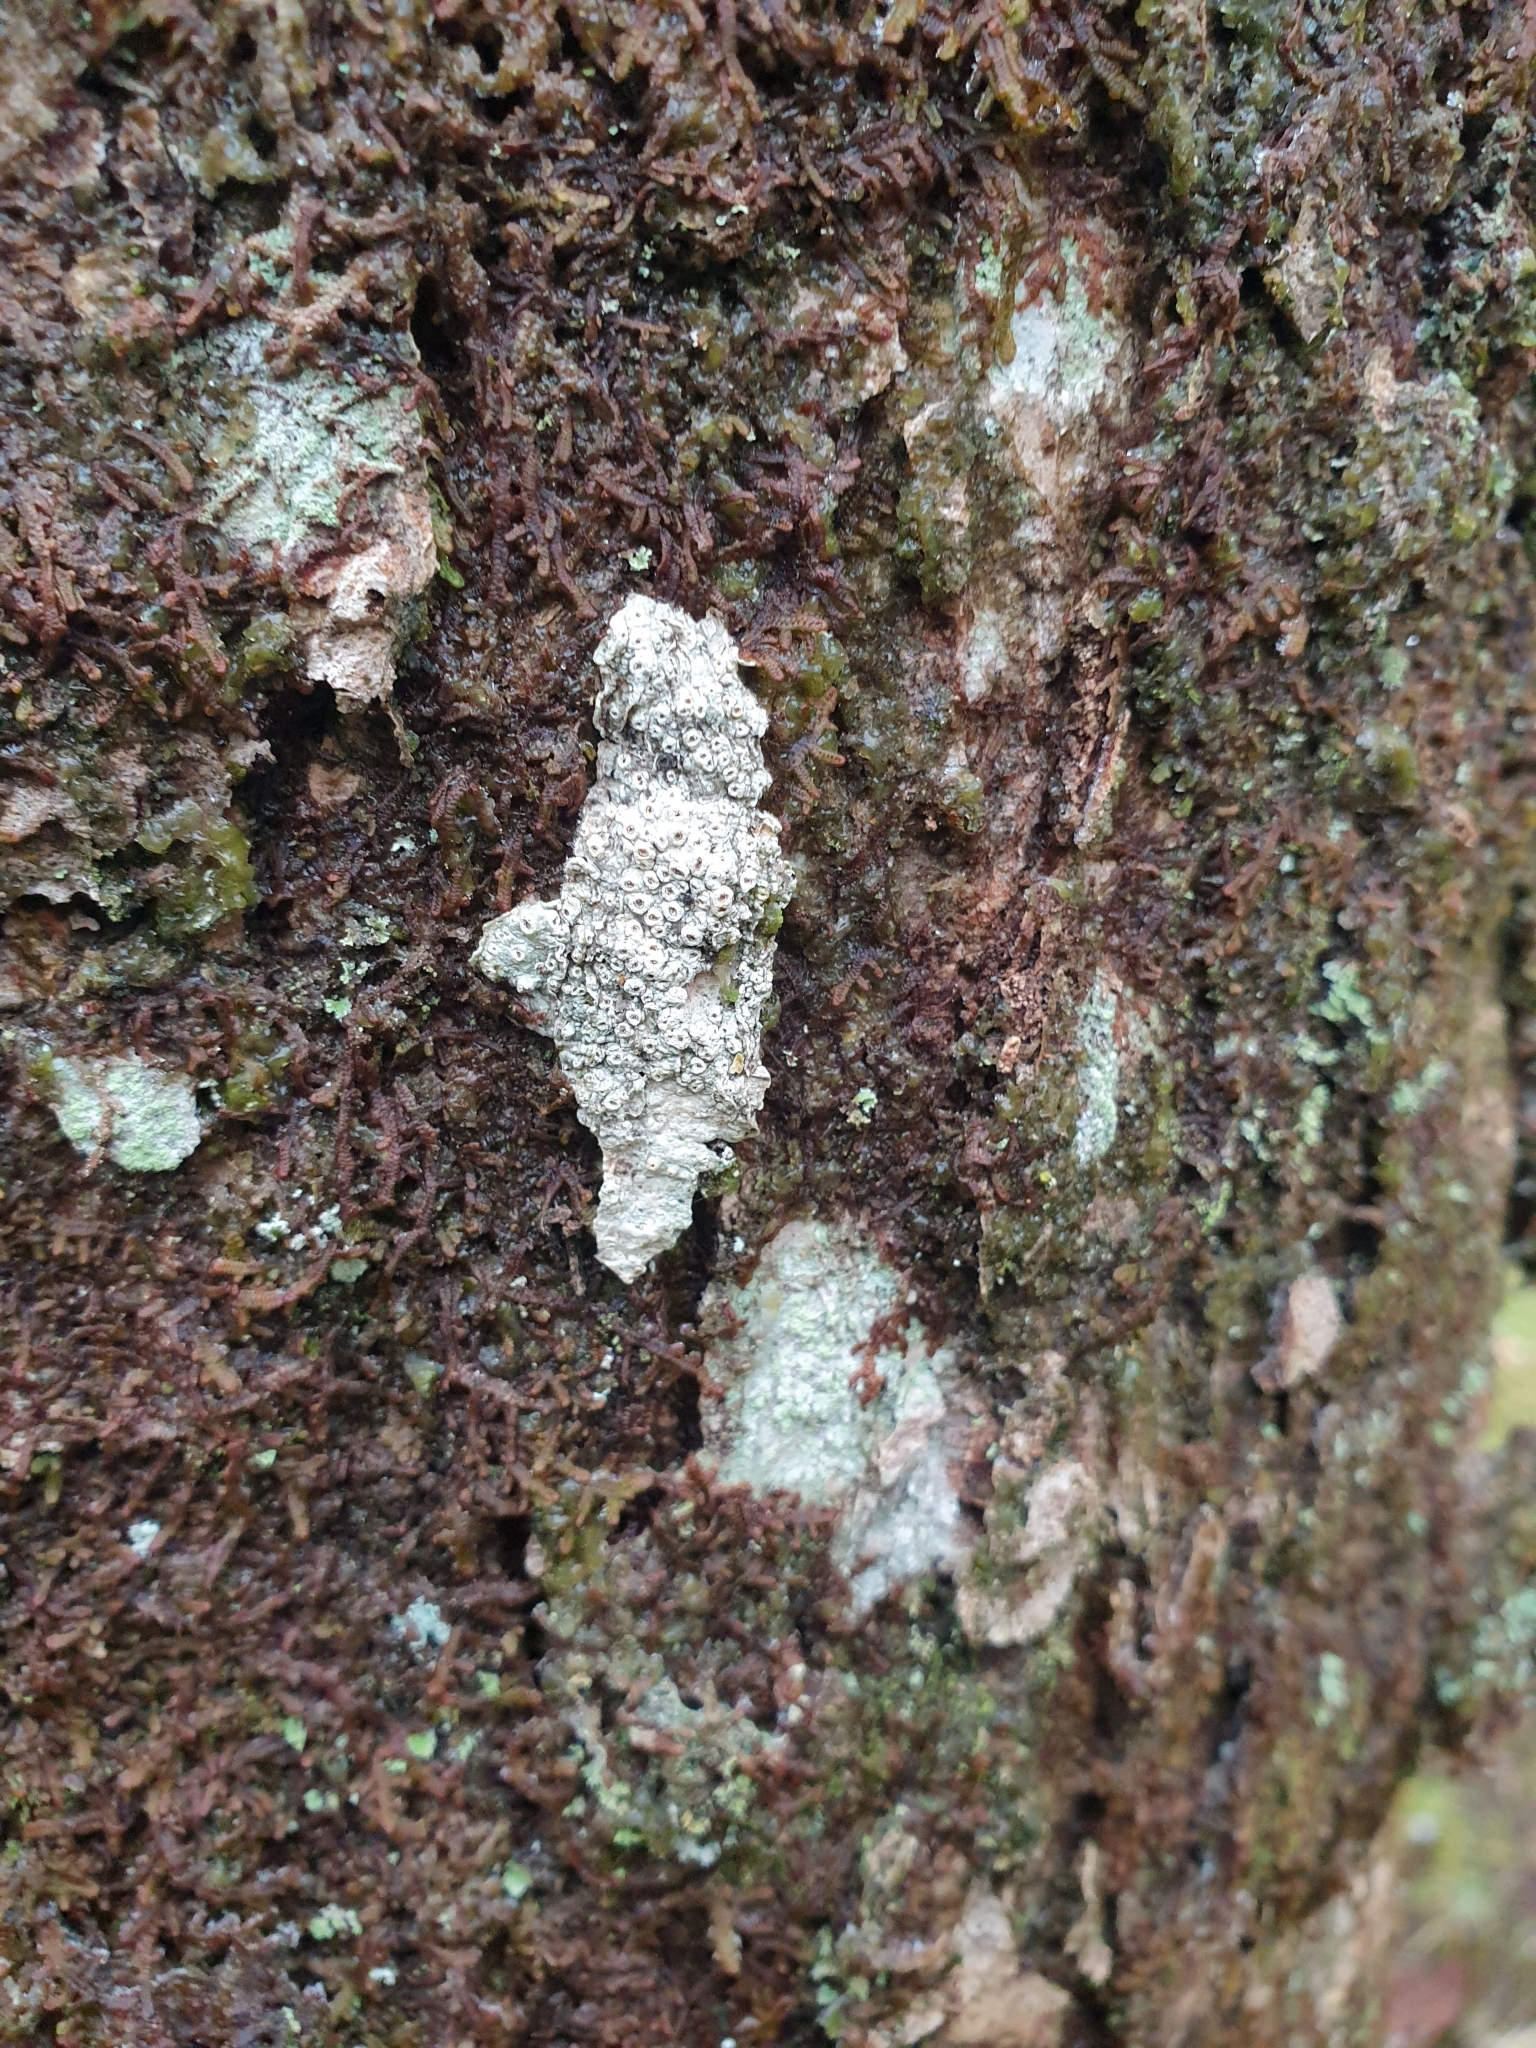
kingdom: Fungi
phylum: Ascomycota
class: Lecanoromycetes
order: Ostropales
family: Graphidaceae
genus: Thelotrema
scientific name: Thelotrema lepadinum
